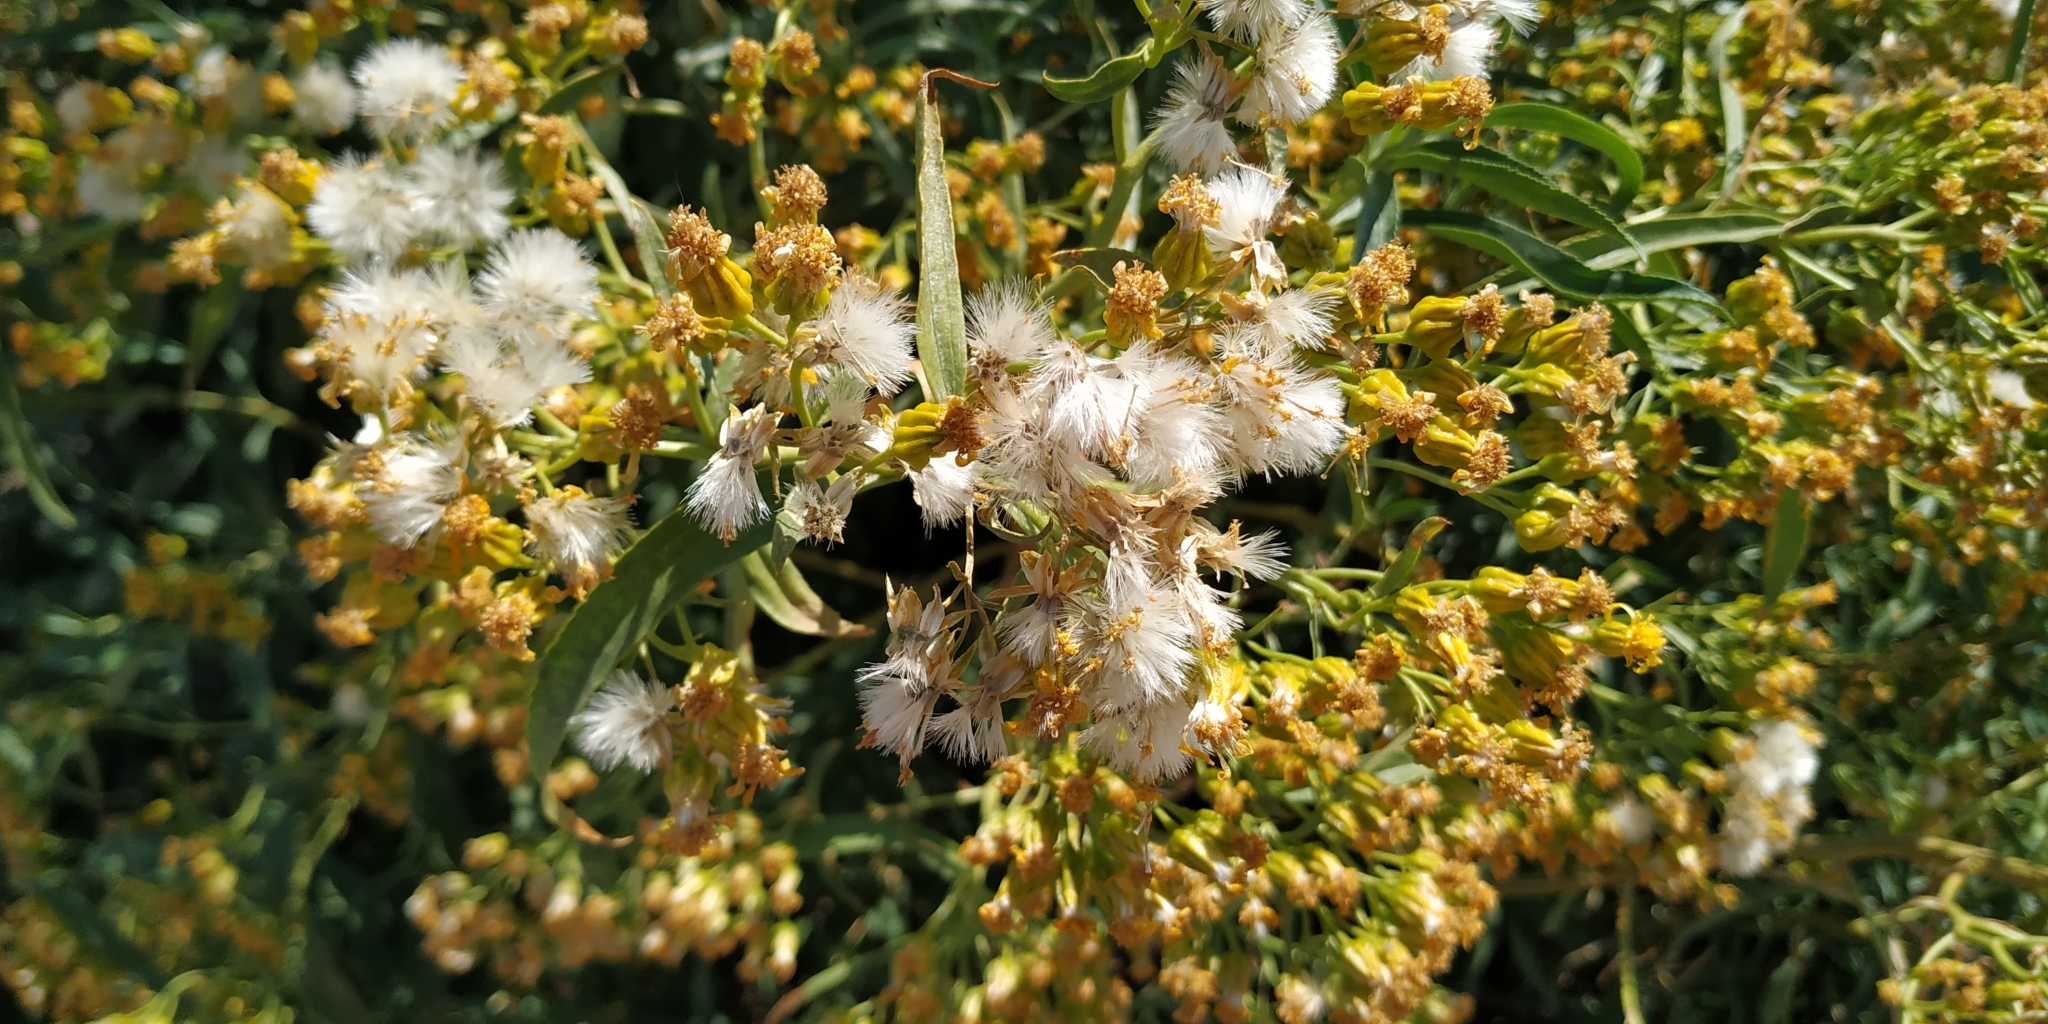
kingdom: Plantae
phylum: Tracheophyta
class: Magnoliopsida
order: Asterales
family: Asteraceae
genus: Barkleyanthus
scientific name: Barkleyanthus salicifolius
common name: Willow ragwort
